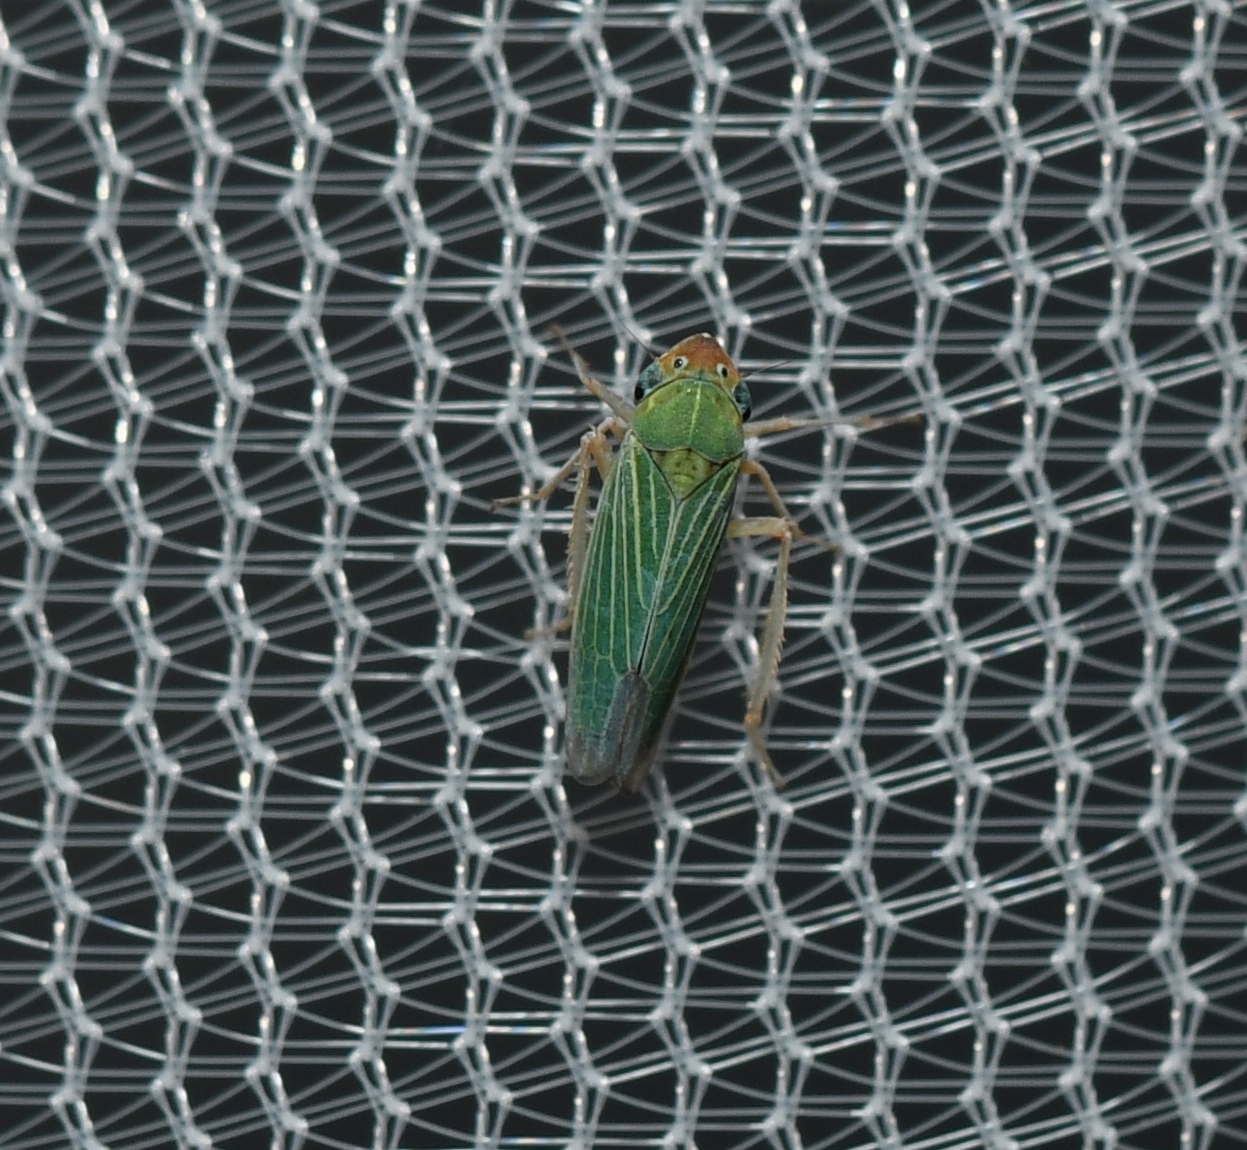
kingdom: Animalia
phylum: Arthropoda
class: Insecta
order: Hemiptera
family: Cicadellidae
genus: Xyphon
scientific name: Xyphon nudum
